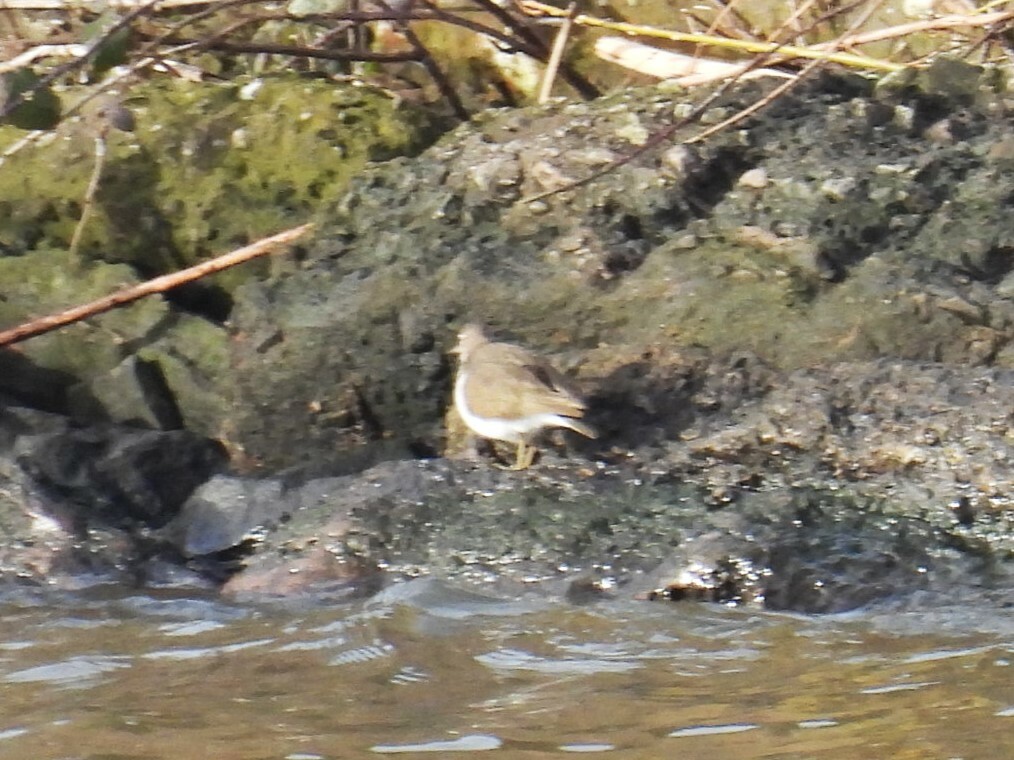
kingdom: Animalia
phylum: Chordata
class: Aves
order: Charadriiformes
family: Scolopacidae
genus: Actitis
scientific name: Actitis hypoleucos
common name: Common sandpiper
